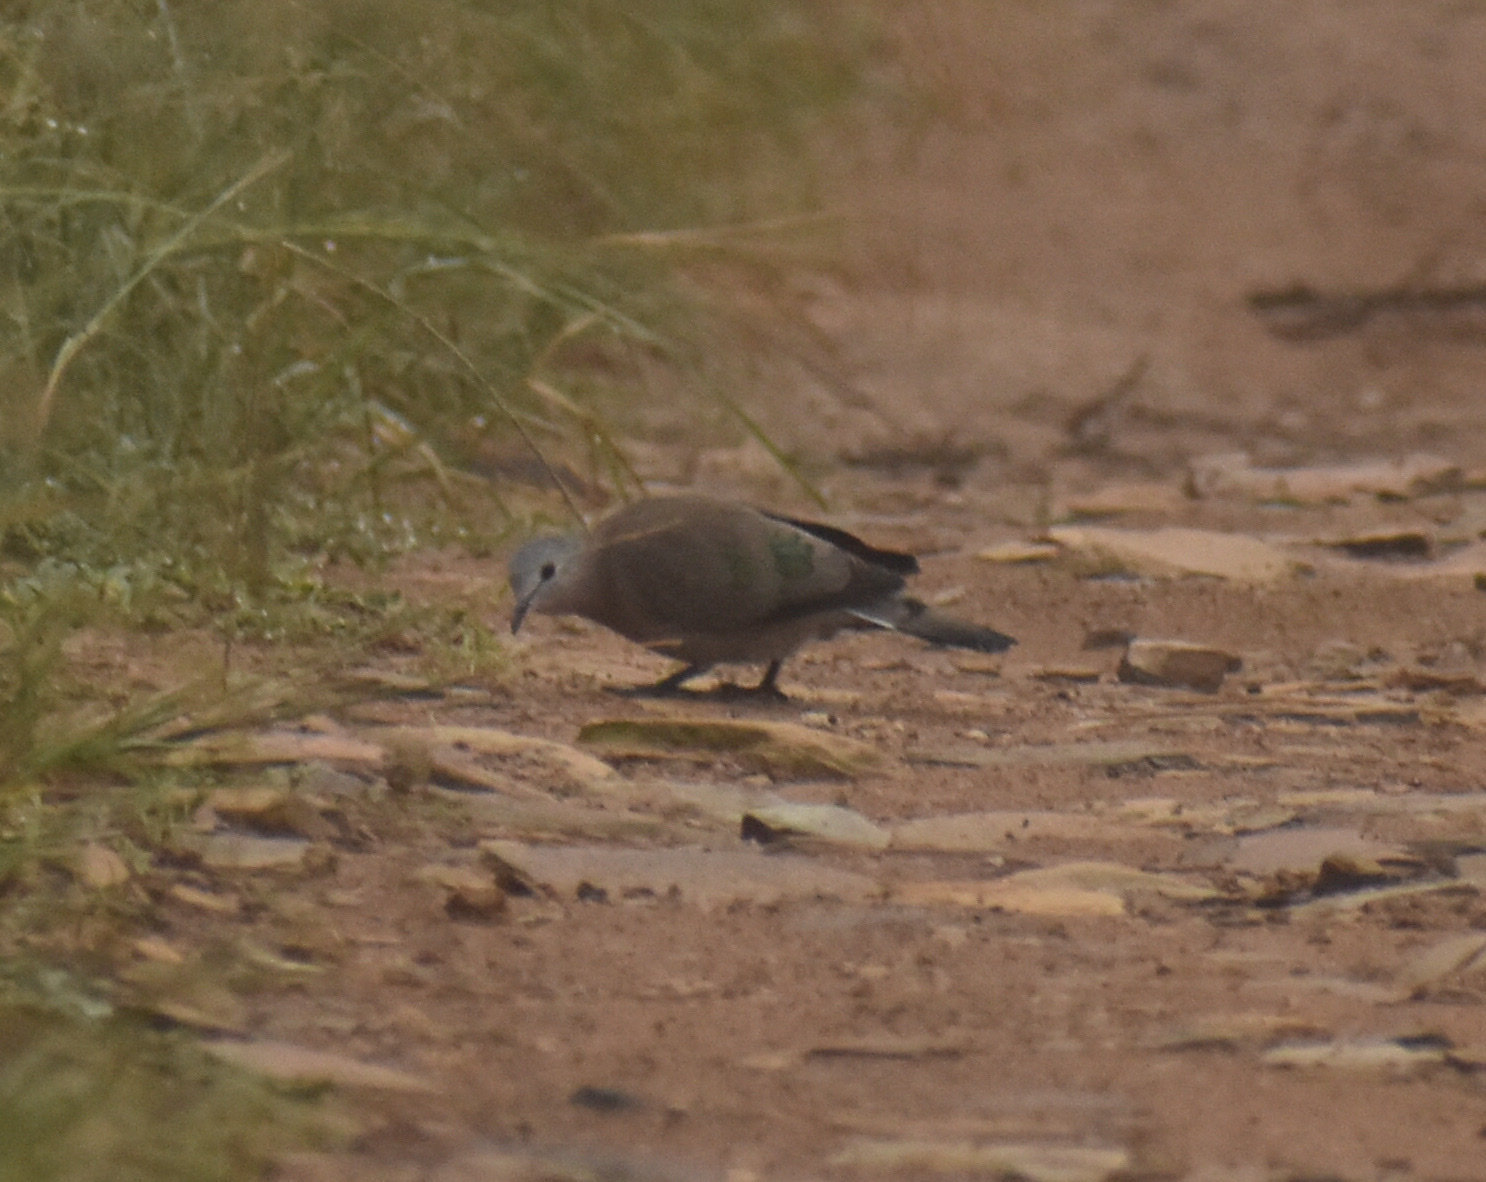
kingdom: Animalia
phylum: Chordata
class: Aves
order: Columbiformes
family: Columbidae
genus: Turtur
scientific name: Turtur chalcospilos
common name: Emerald-spotted wood dove
